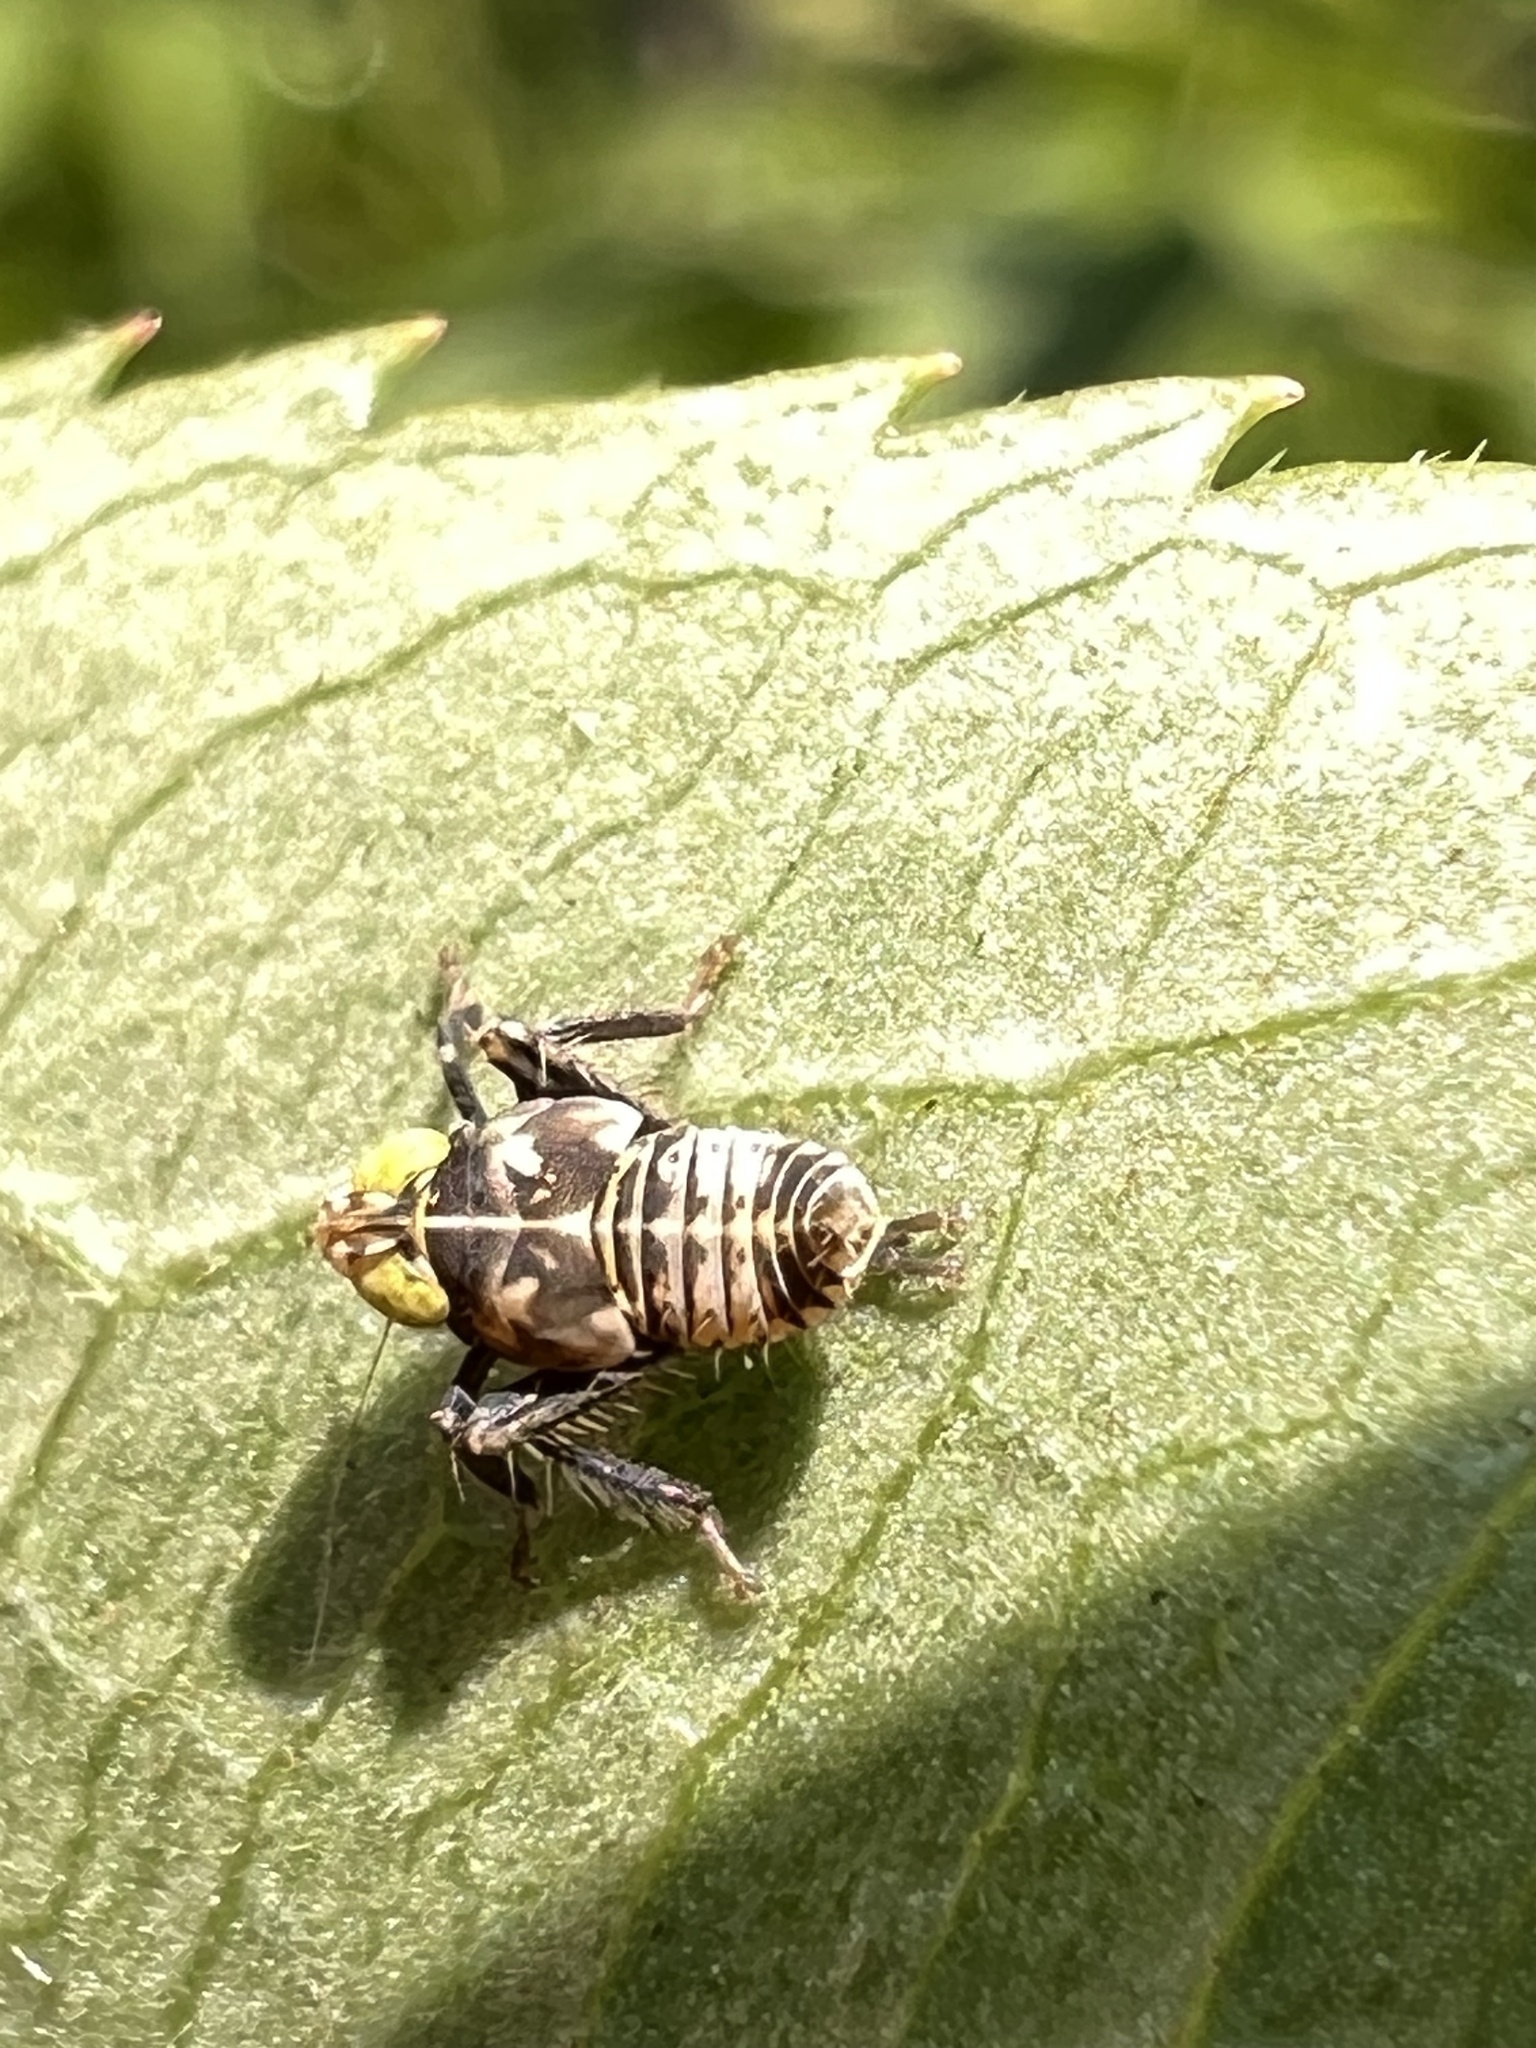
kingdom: Animalia
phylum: Arthropoda
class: Insecta
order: Hemiptera
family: Cicadellidae
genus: Jikradia
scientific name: Jikradia olitoria
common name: Coppery leafhopper
